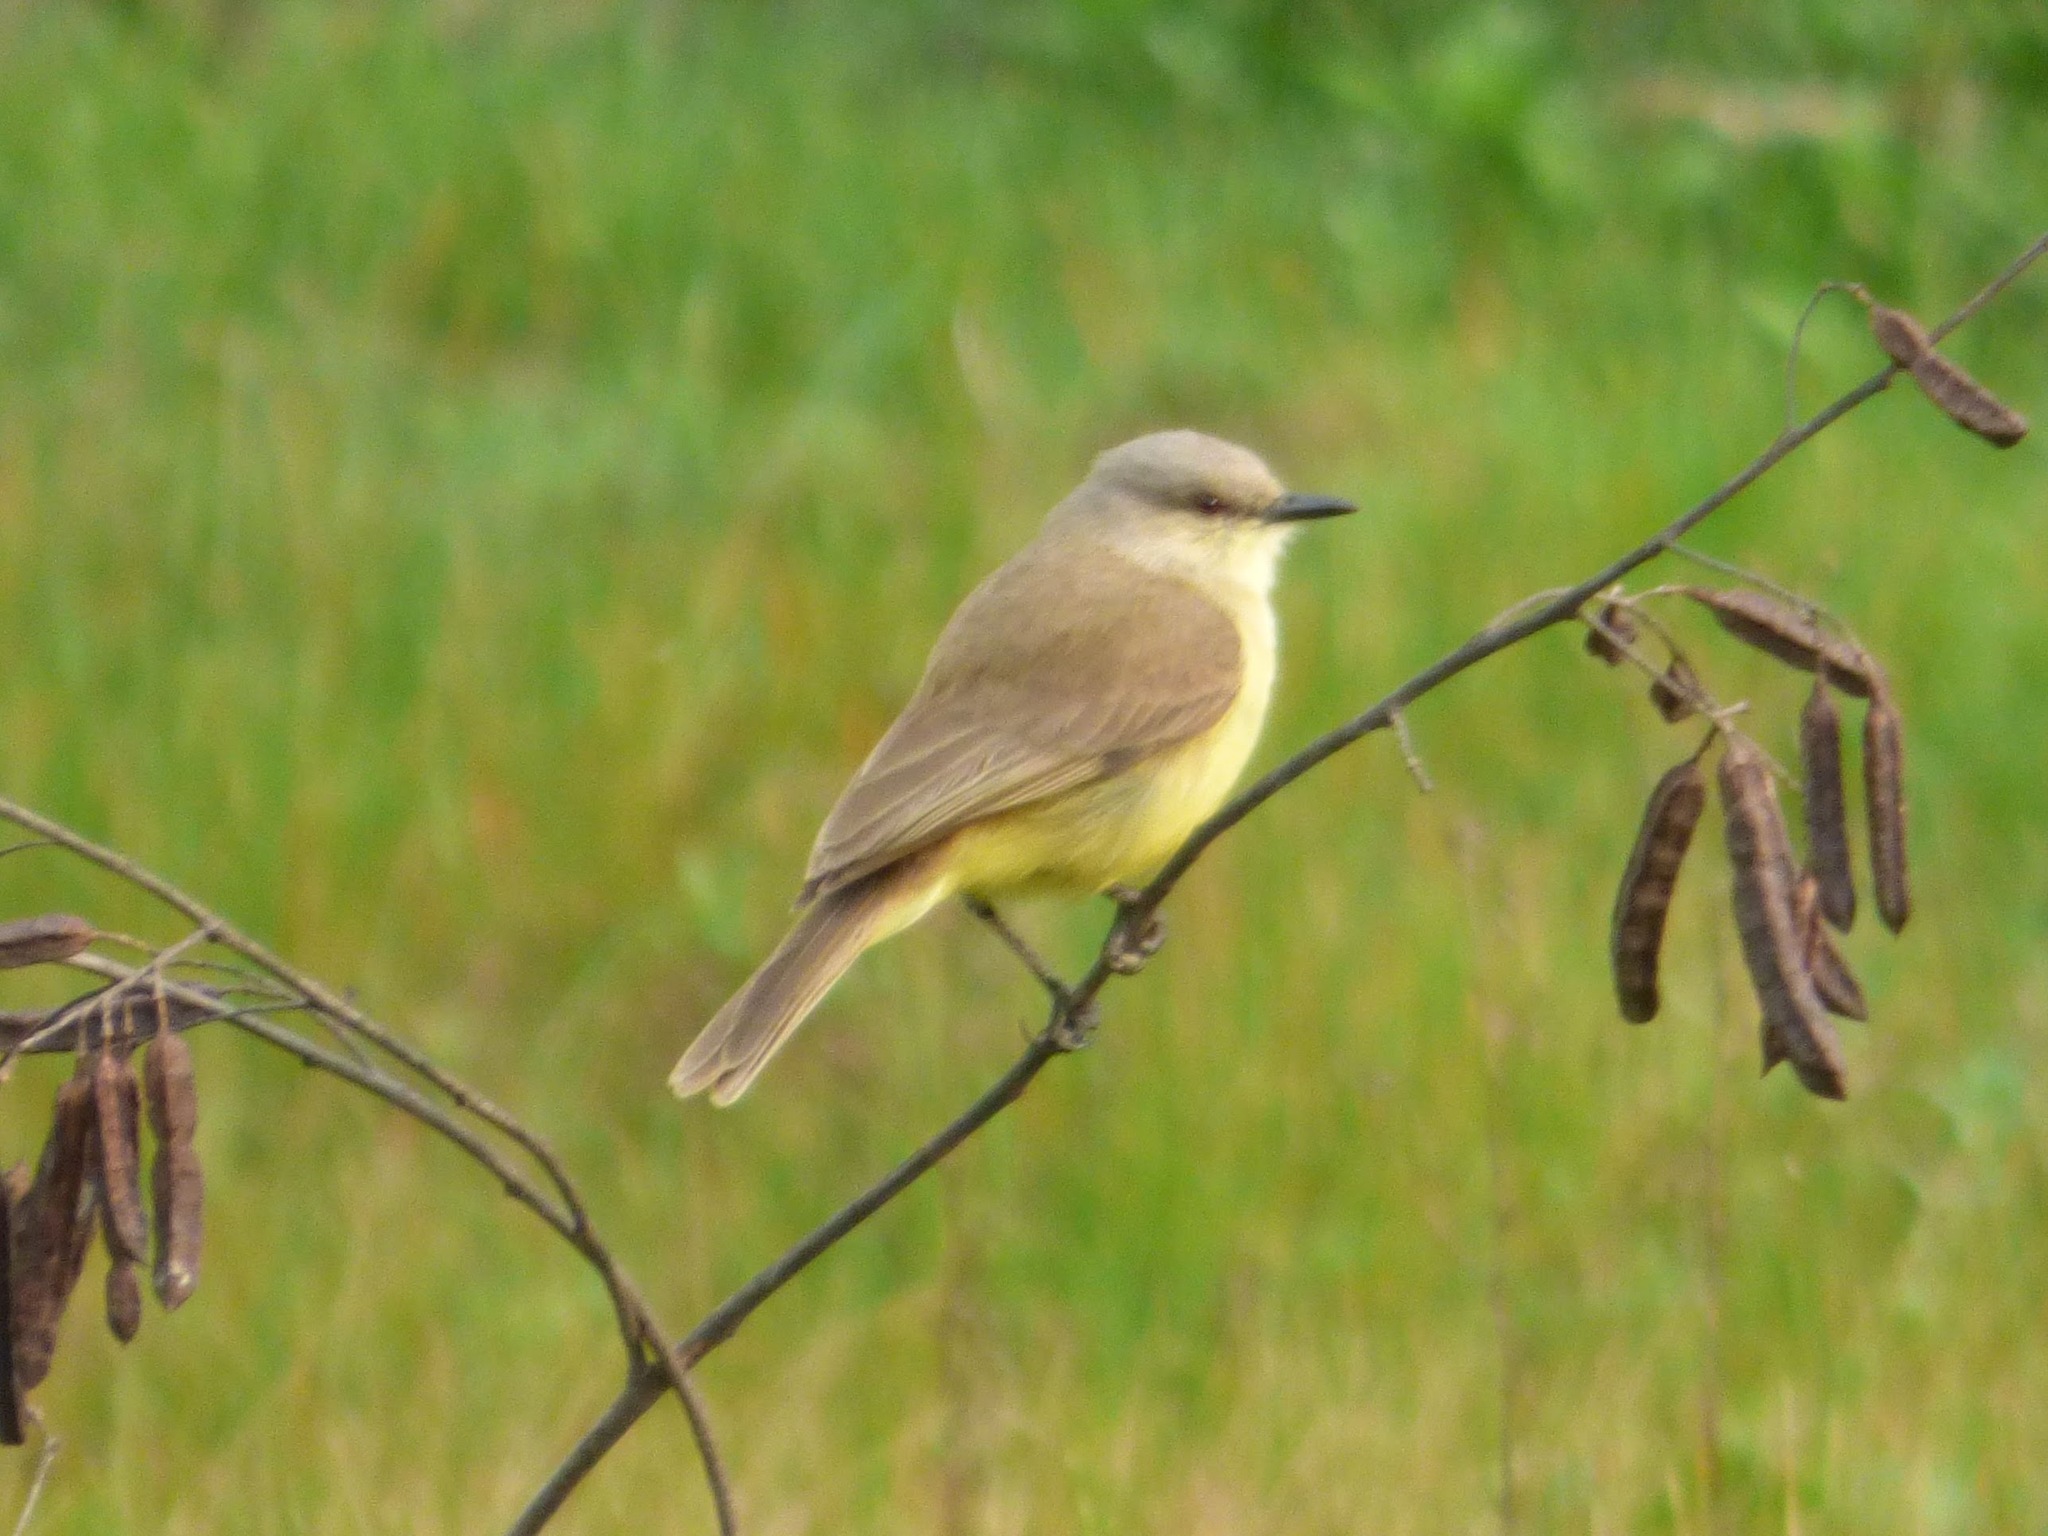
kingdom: Animalia
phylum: Chordata
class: Aves
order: Passeriformes
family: Tyrannidae
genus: Machetornis
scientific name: Machetornis rixosa
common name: Cattle tyrant
